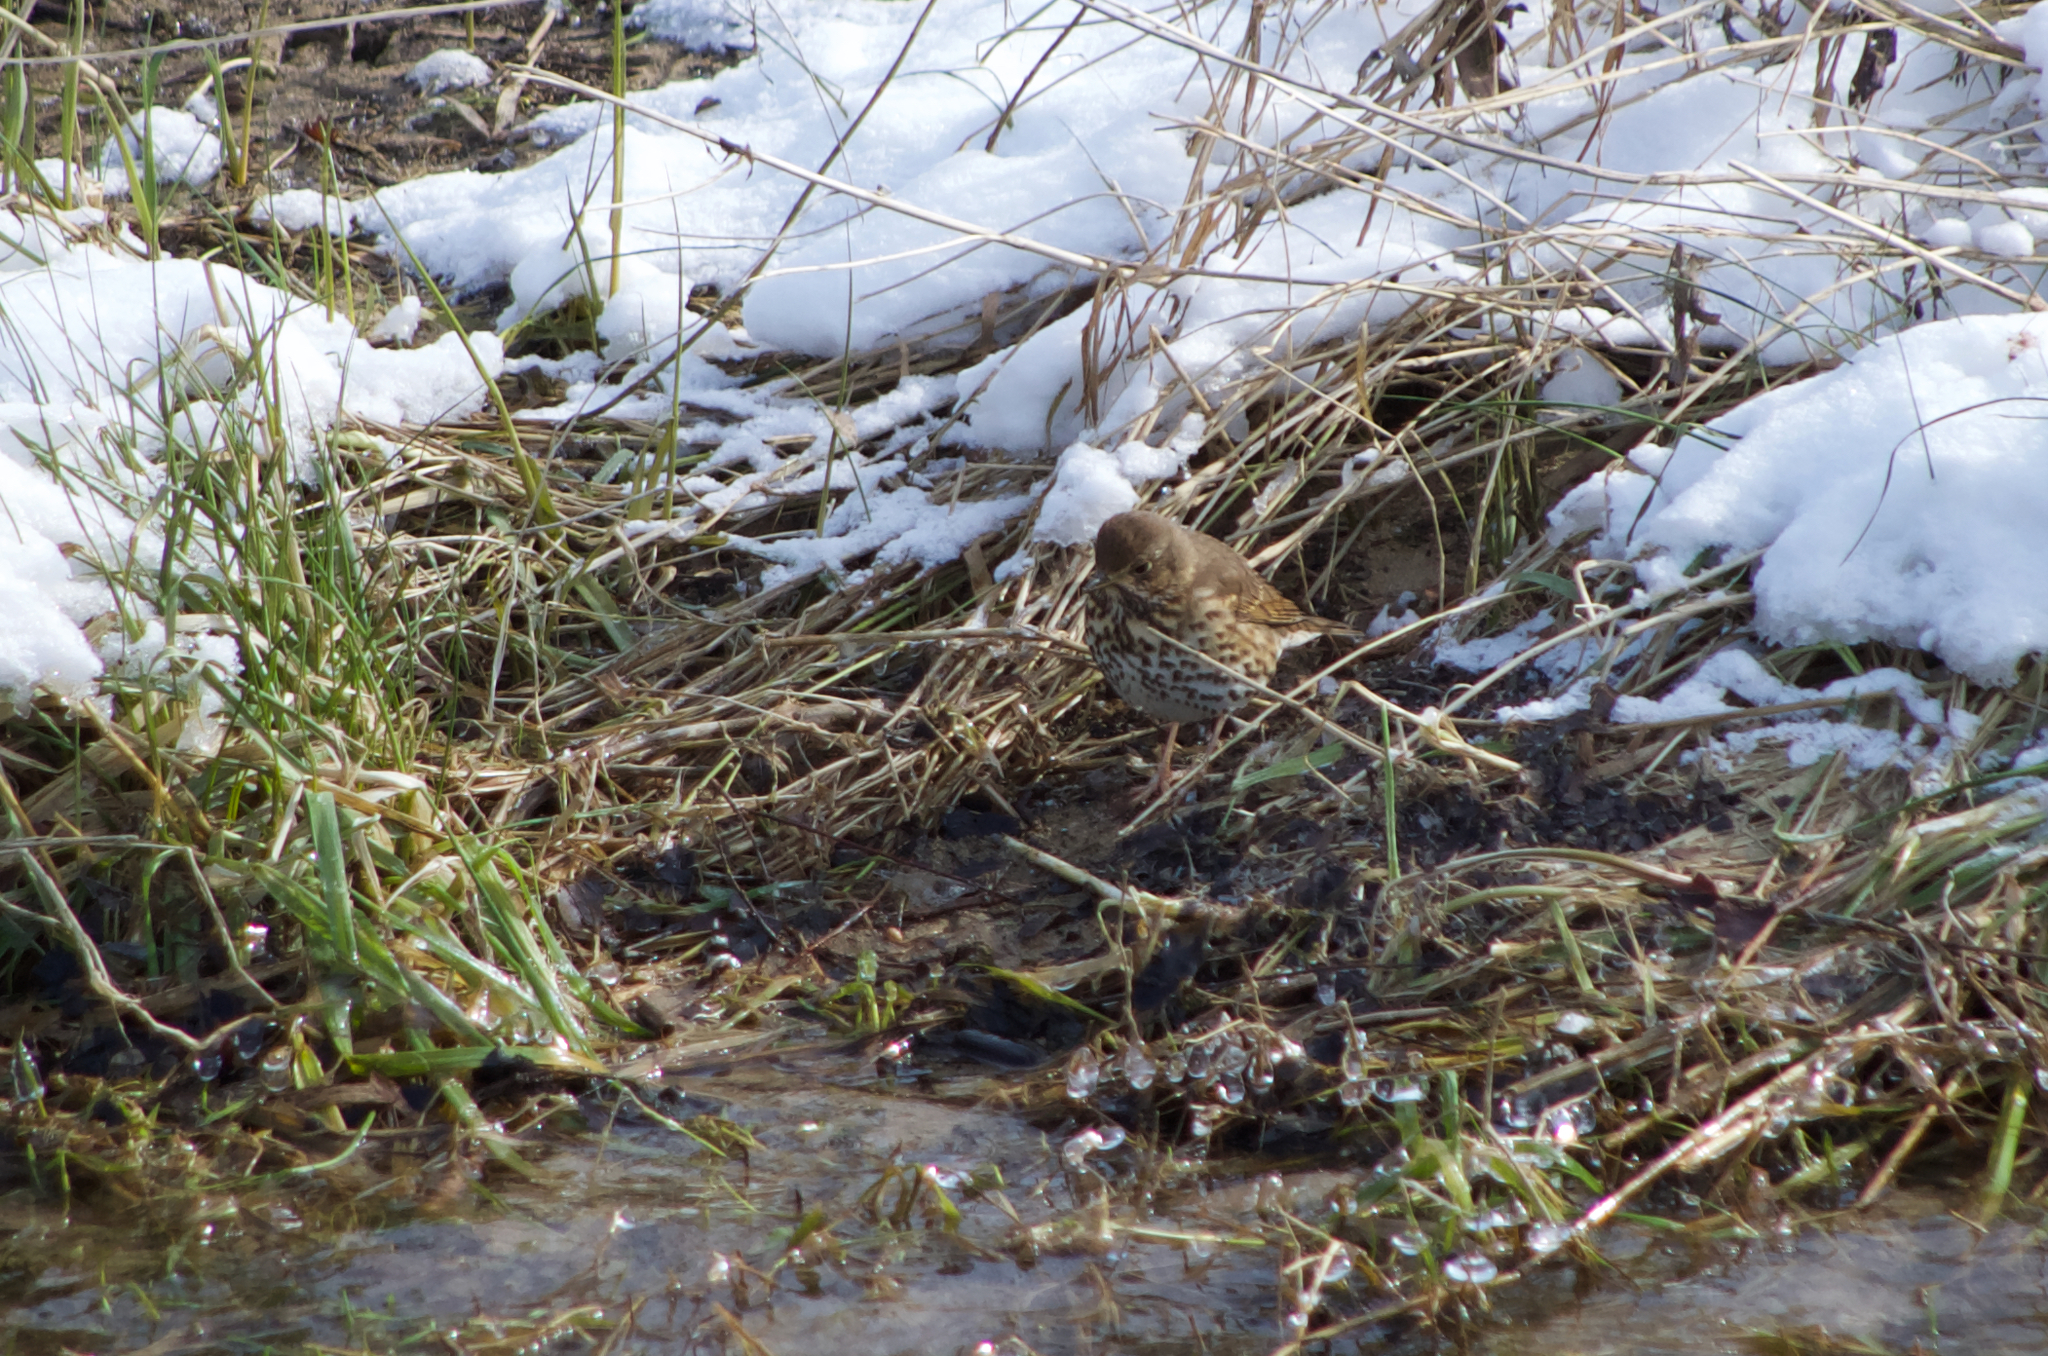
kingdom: Animalia
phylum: Chordata
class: Aves
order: Passeriformes
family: Turdidae
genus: Turdus
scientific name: Turdus philomelos
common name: Song thrush
